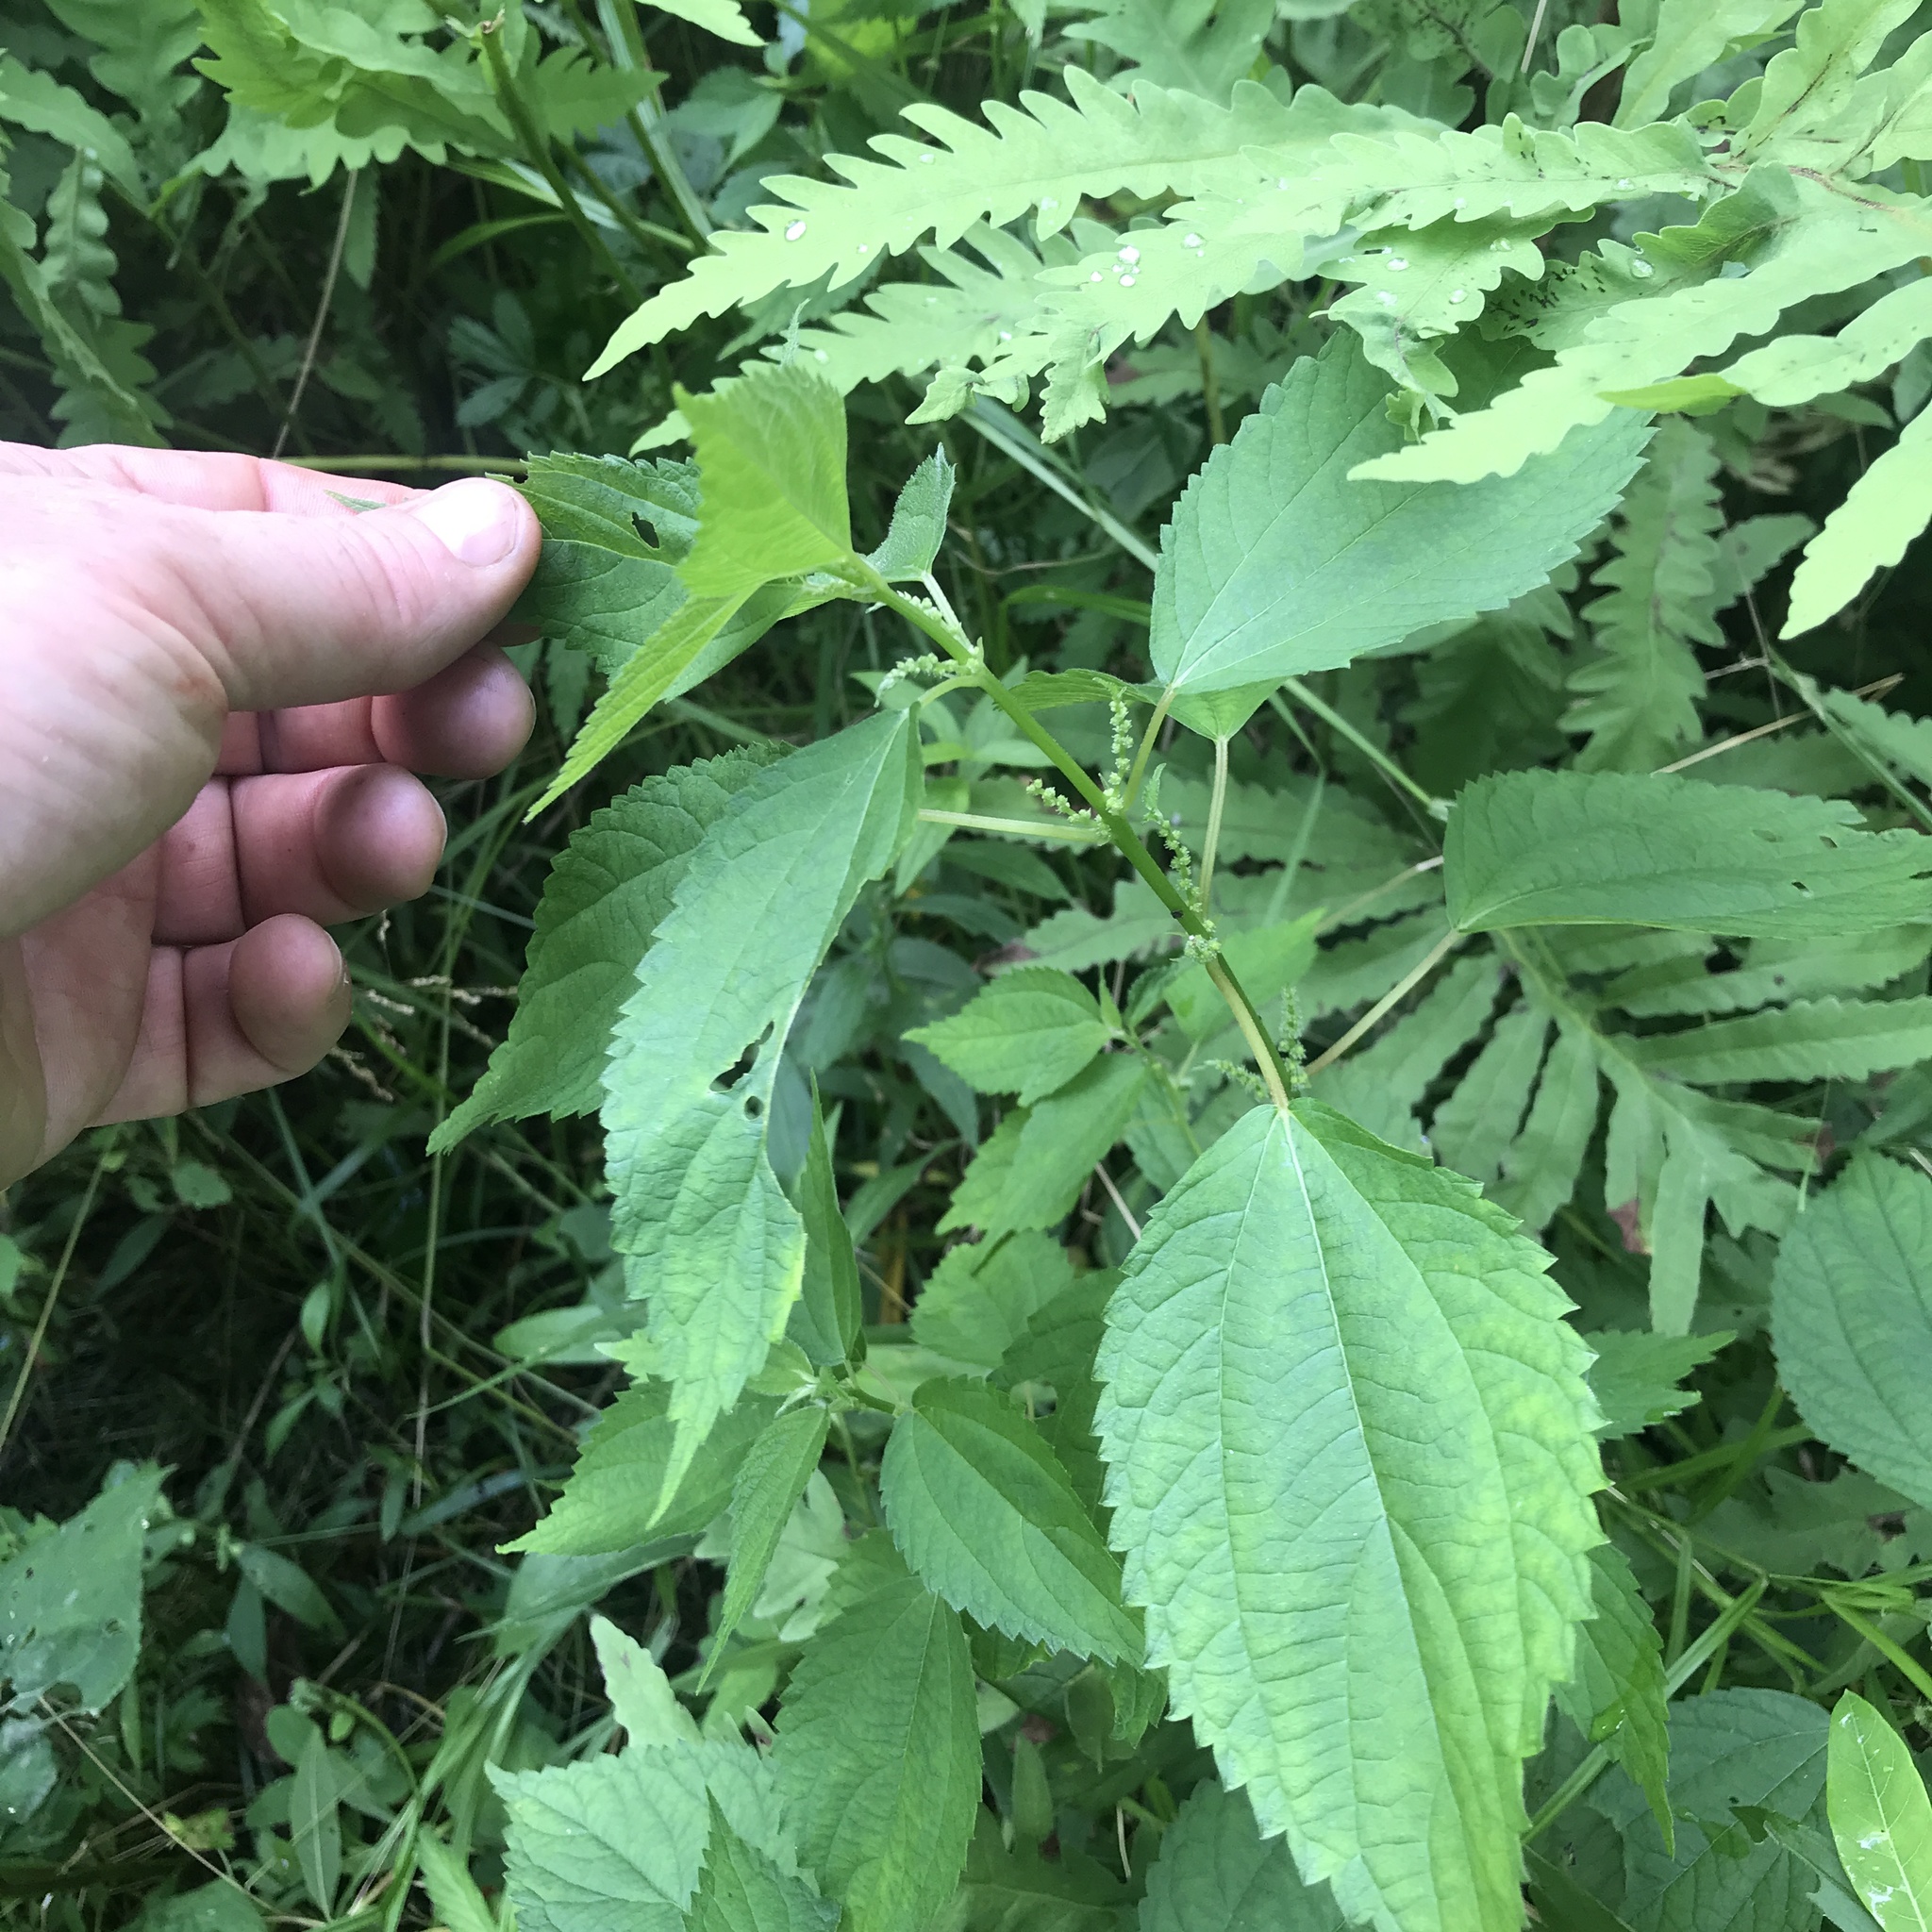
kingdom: Plantae
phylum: Tracheophyta
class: Magnoliopsida
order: Rosales
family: Urticaceae
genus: Boehmeria
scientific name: Boehmeria cylindrica
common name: Bog-hemp
